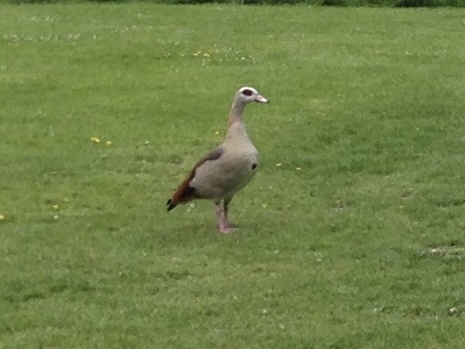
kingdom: Animalia
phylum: Chordata
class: Aves
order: Anseriformes
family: Anatidae
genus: Alopochen
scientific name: Alopochen aegyptiaca
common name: Egyptian goose
